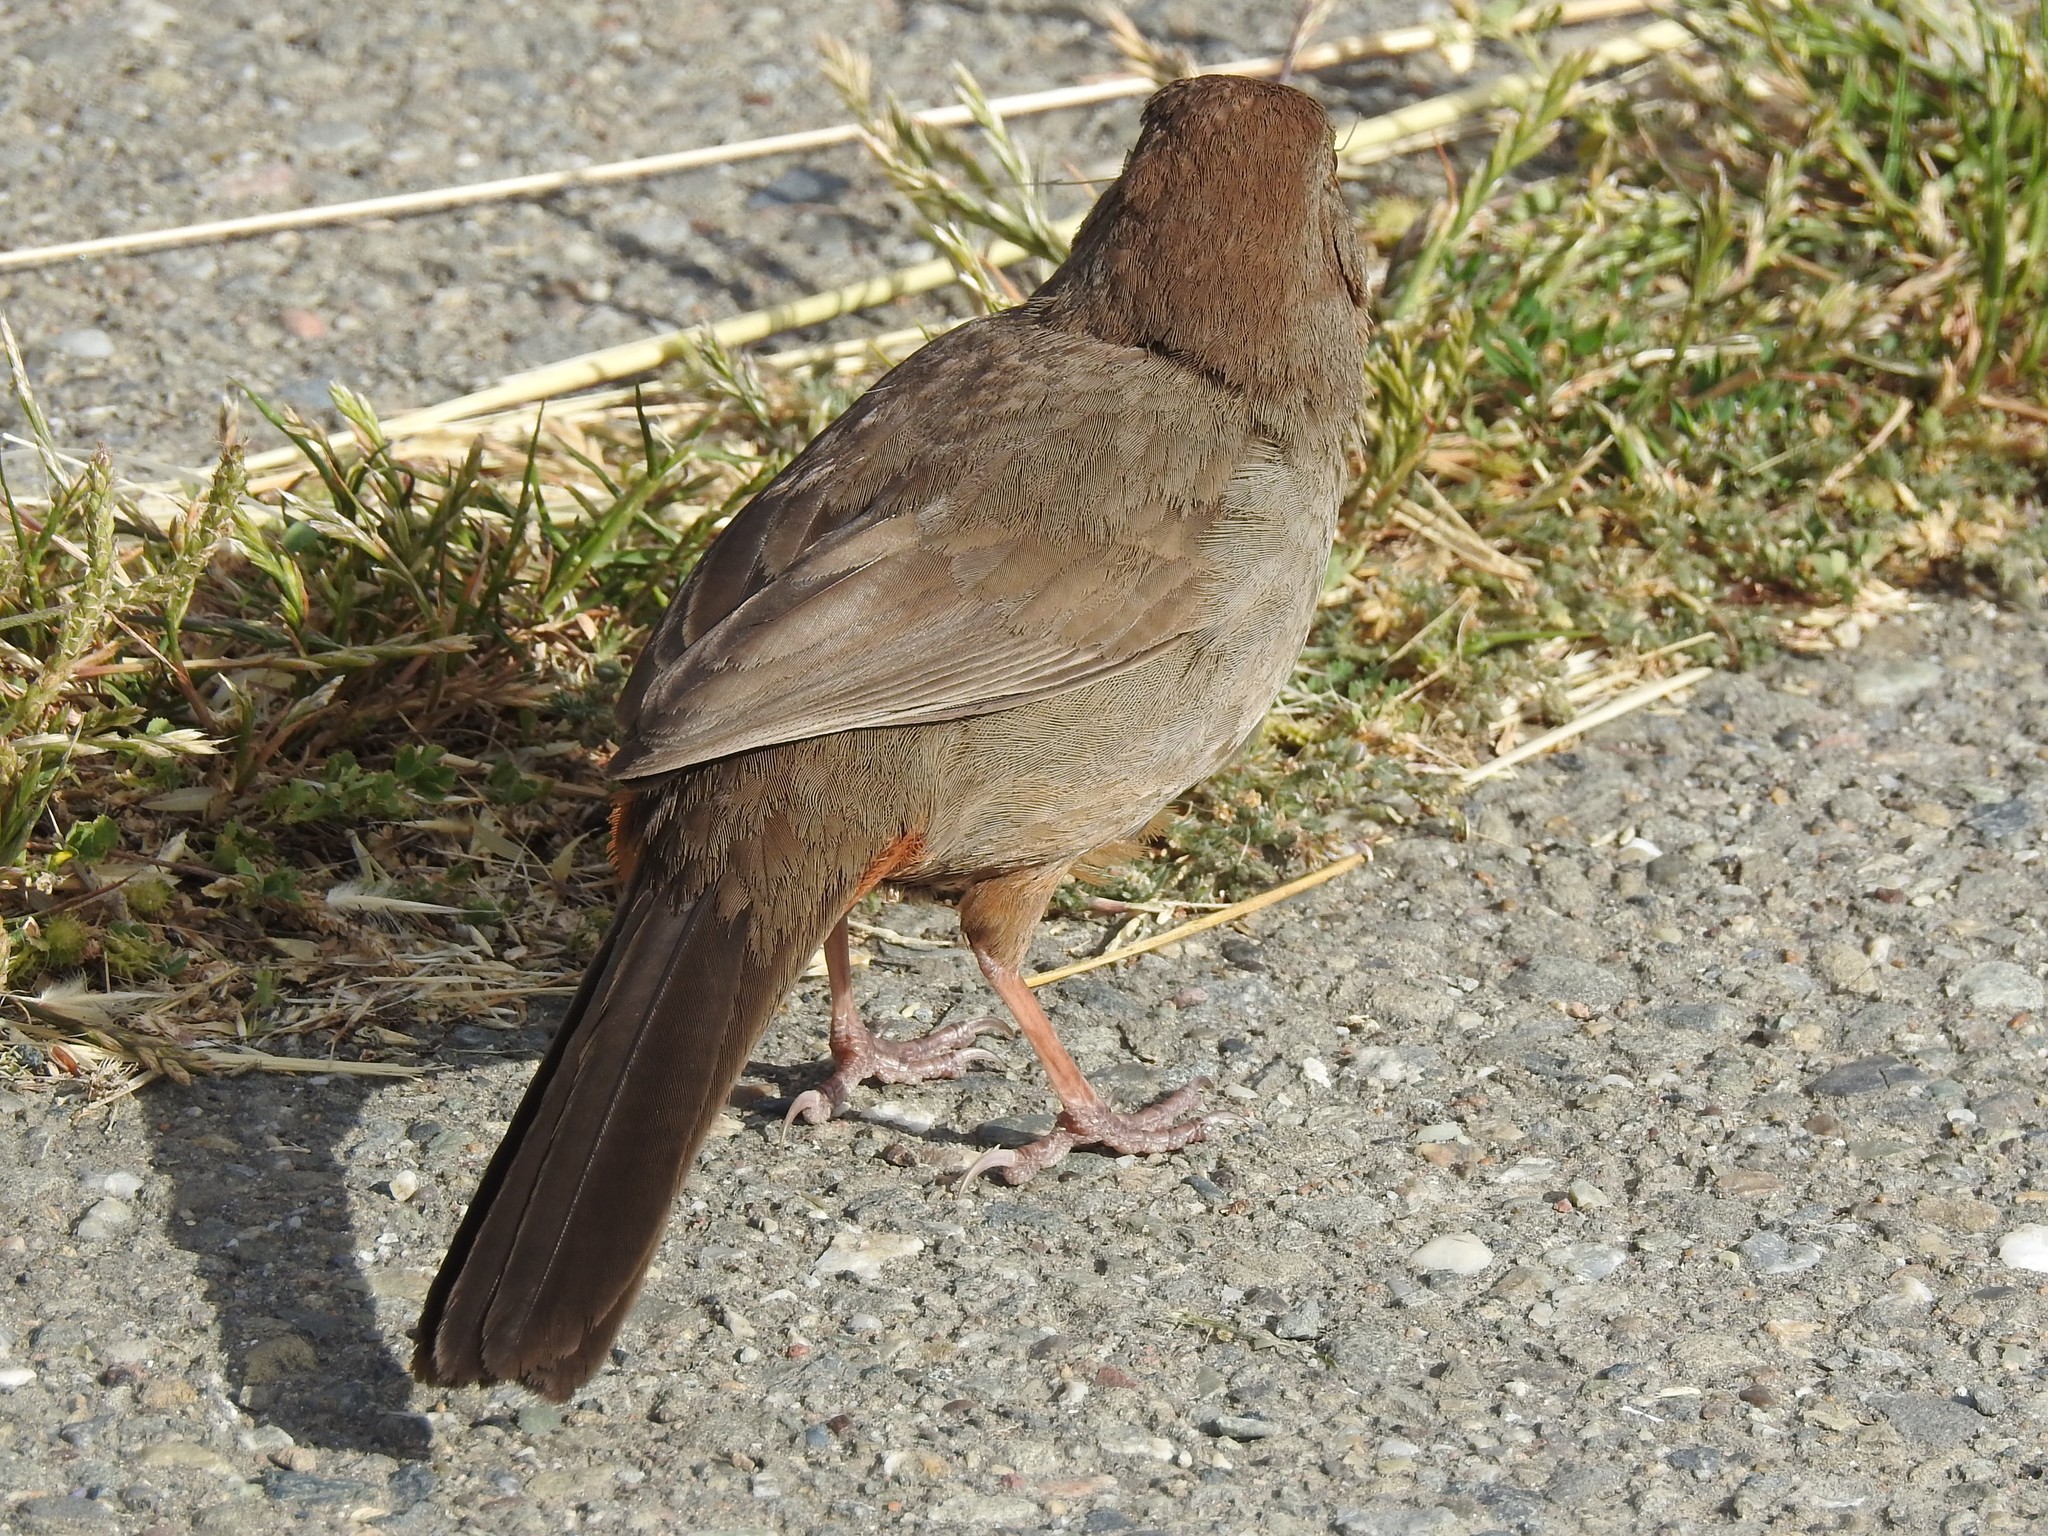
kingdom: Animalia
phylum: Chordata
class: Aves
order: Passeriformes
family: Passerellidae
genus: Melozone
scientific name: Melozone crissalis
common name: California towhee
